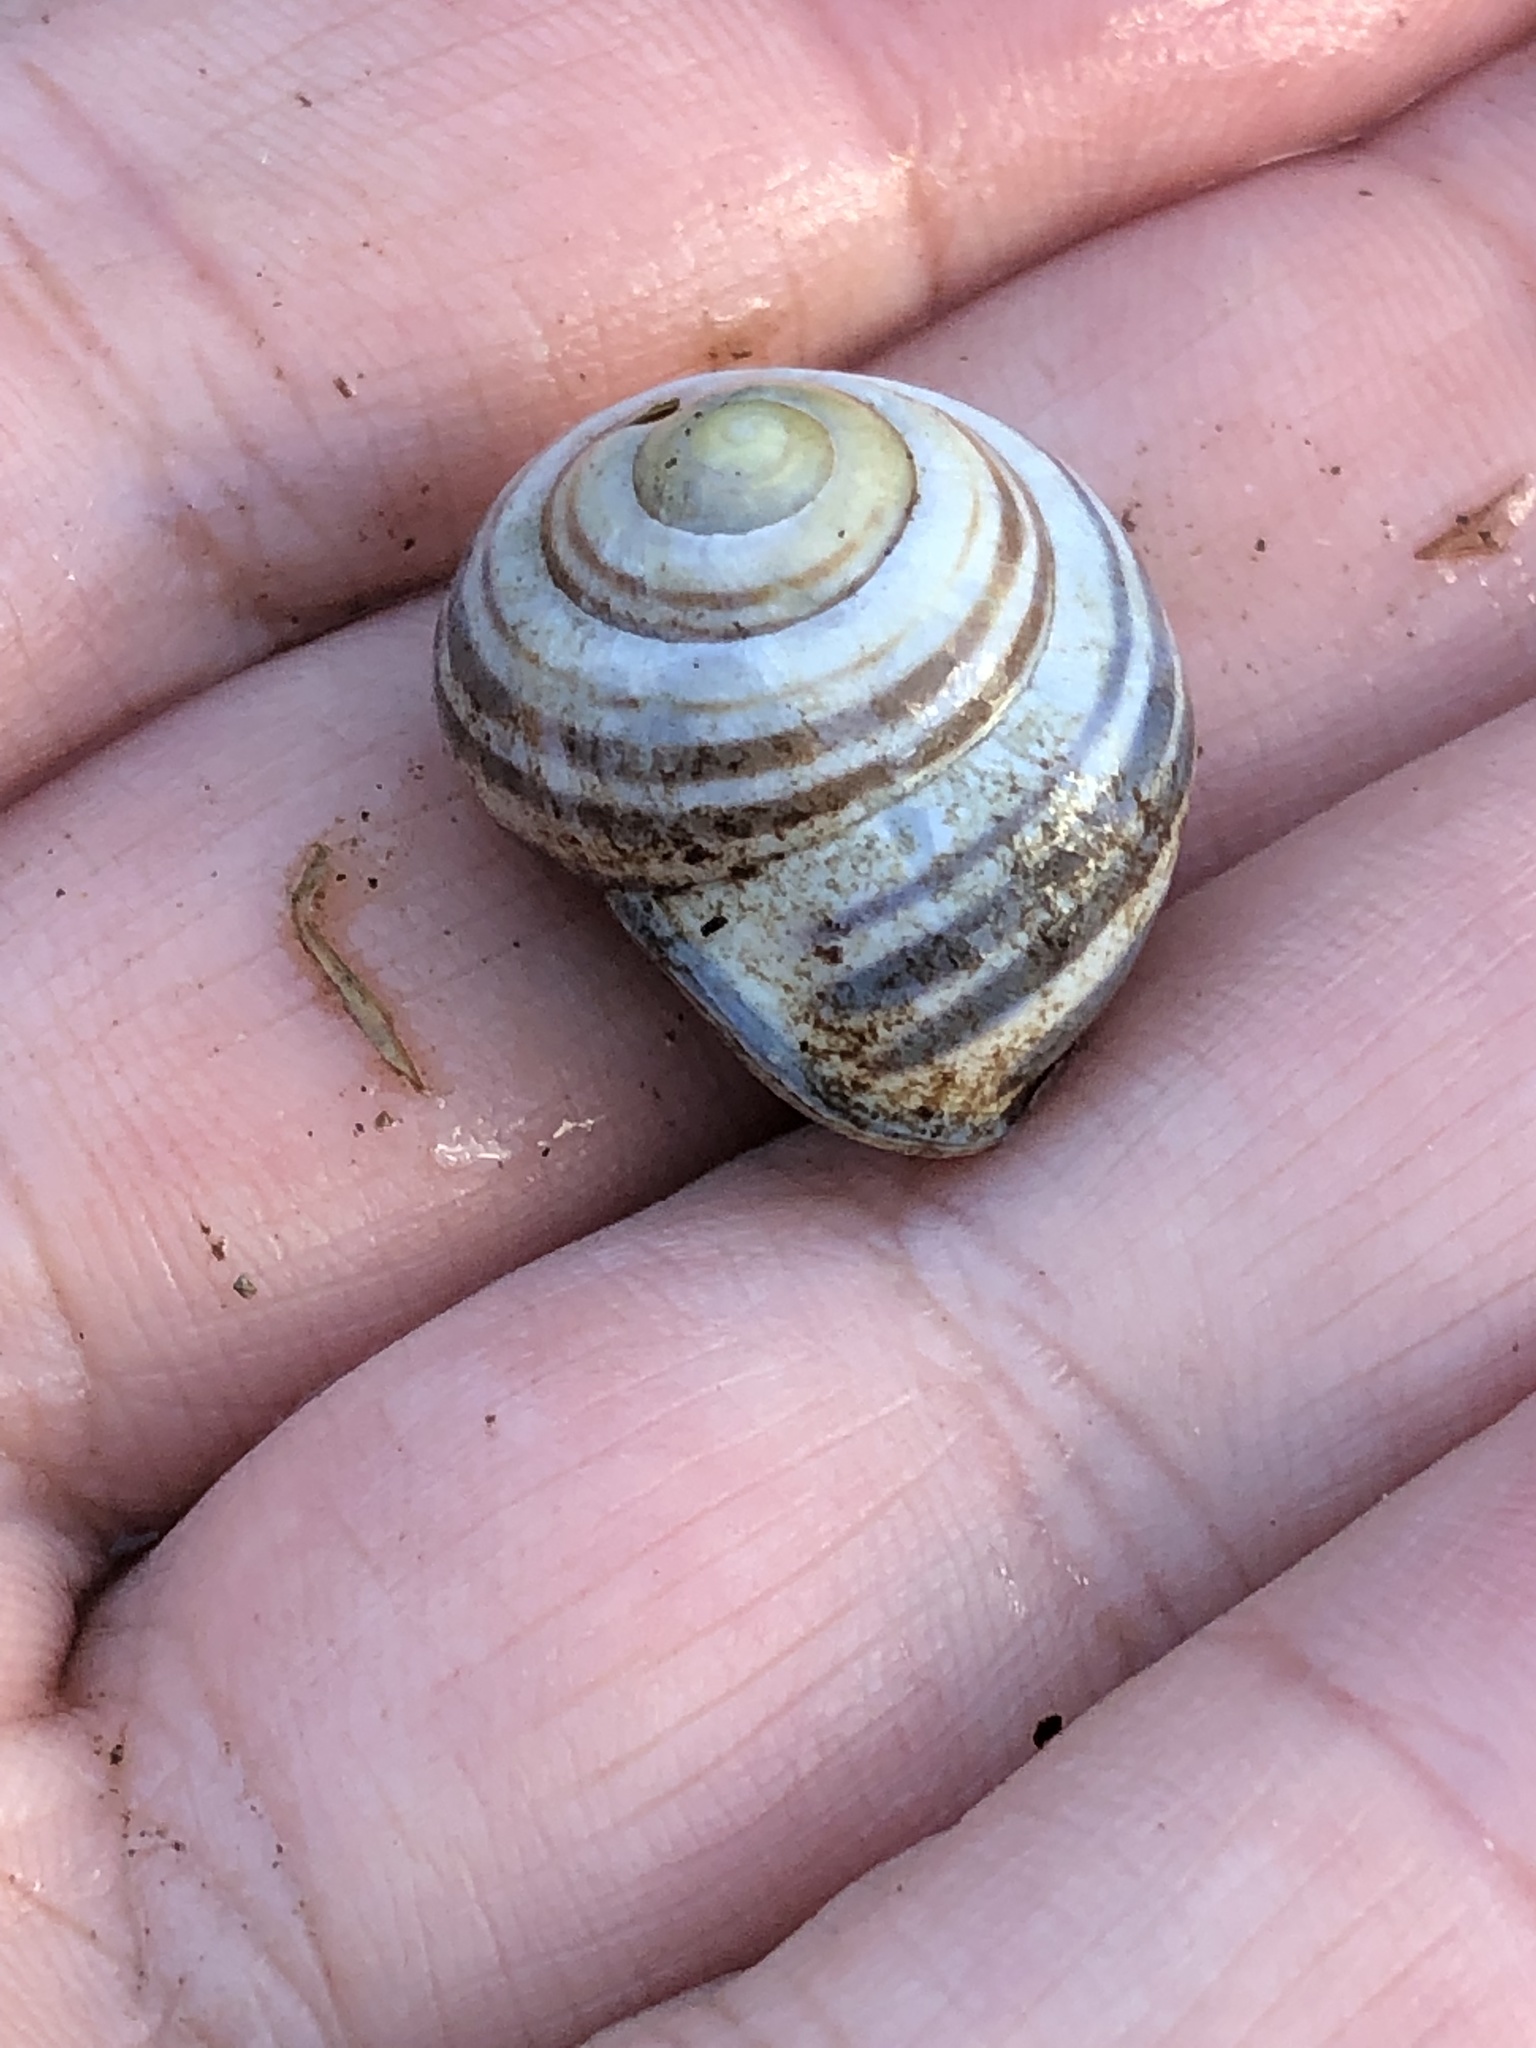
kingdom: Animalia
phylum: Mollusca
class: Gastropoda
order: Stylommatophora
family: Helicidae
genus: Cepaea
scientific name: Cepaea nemoralis
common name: Grovesnail
